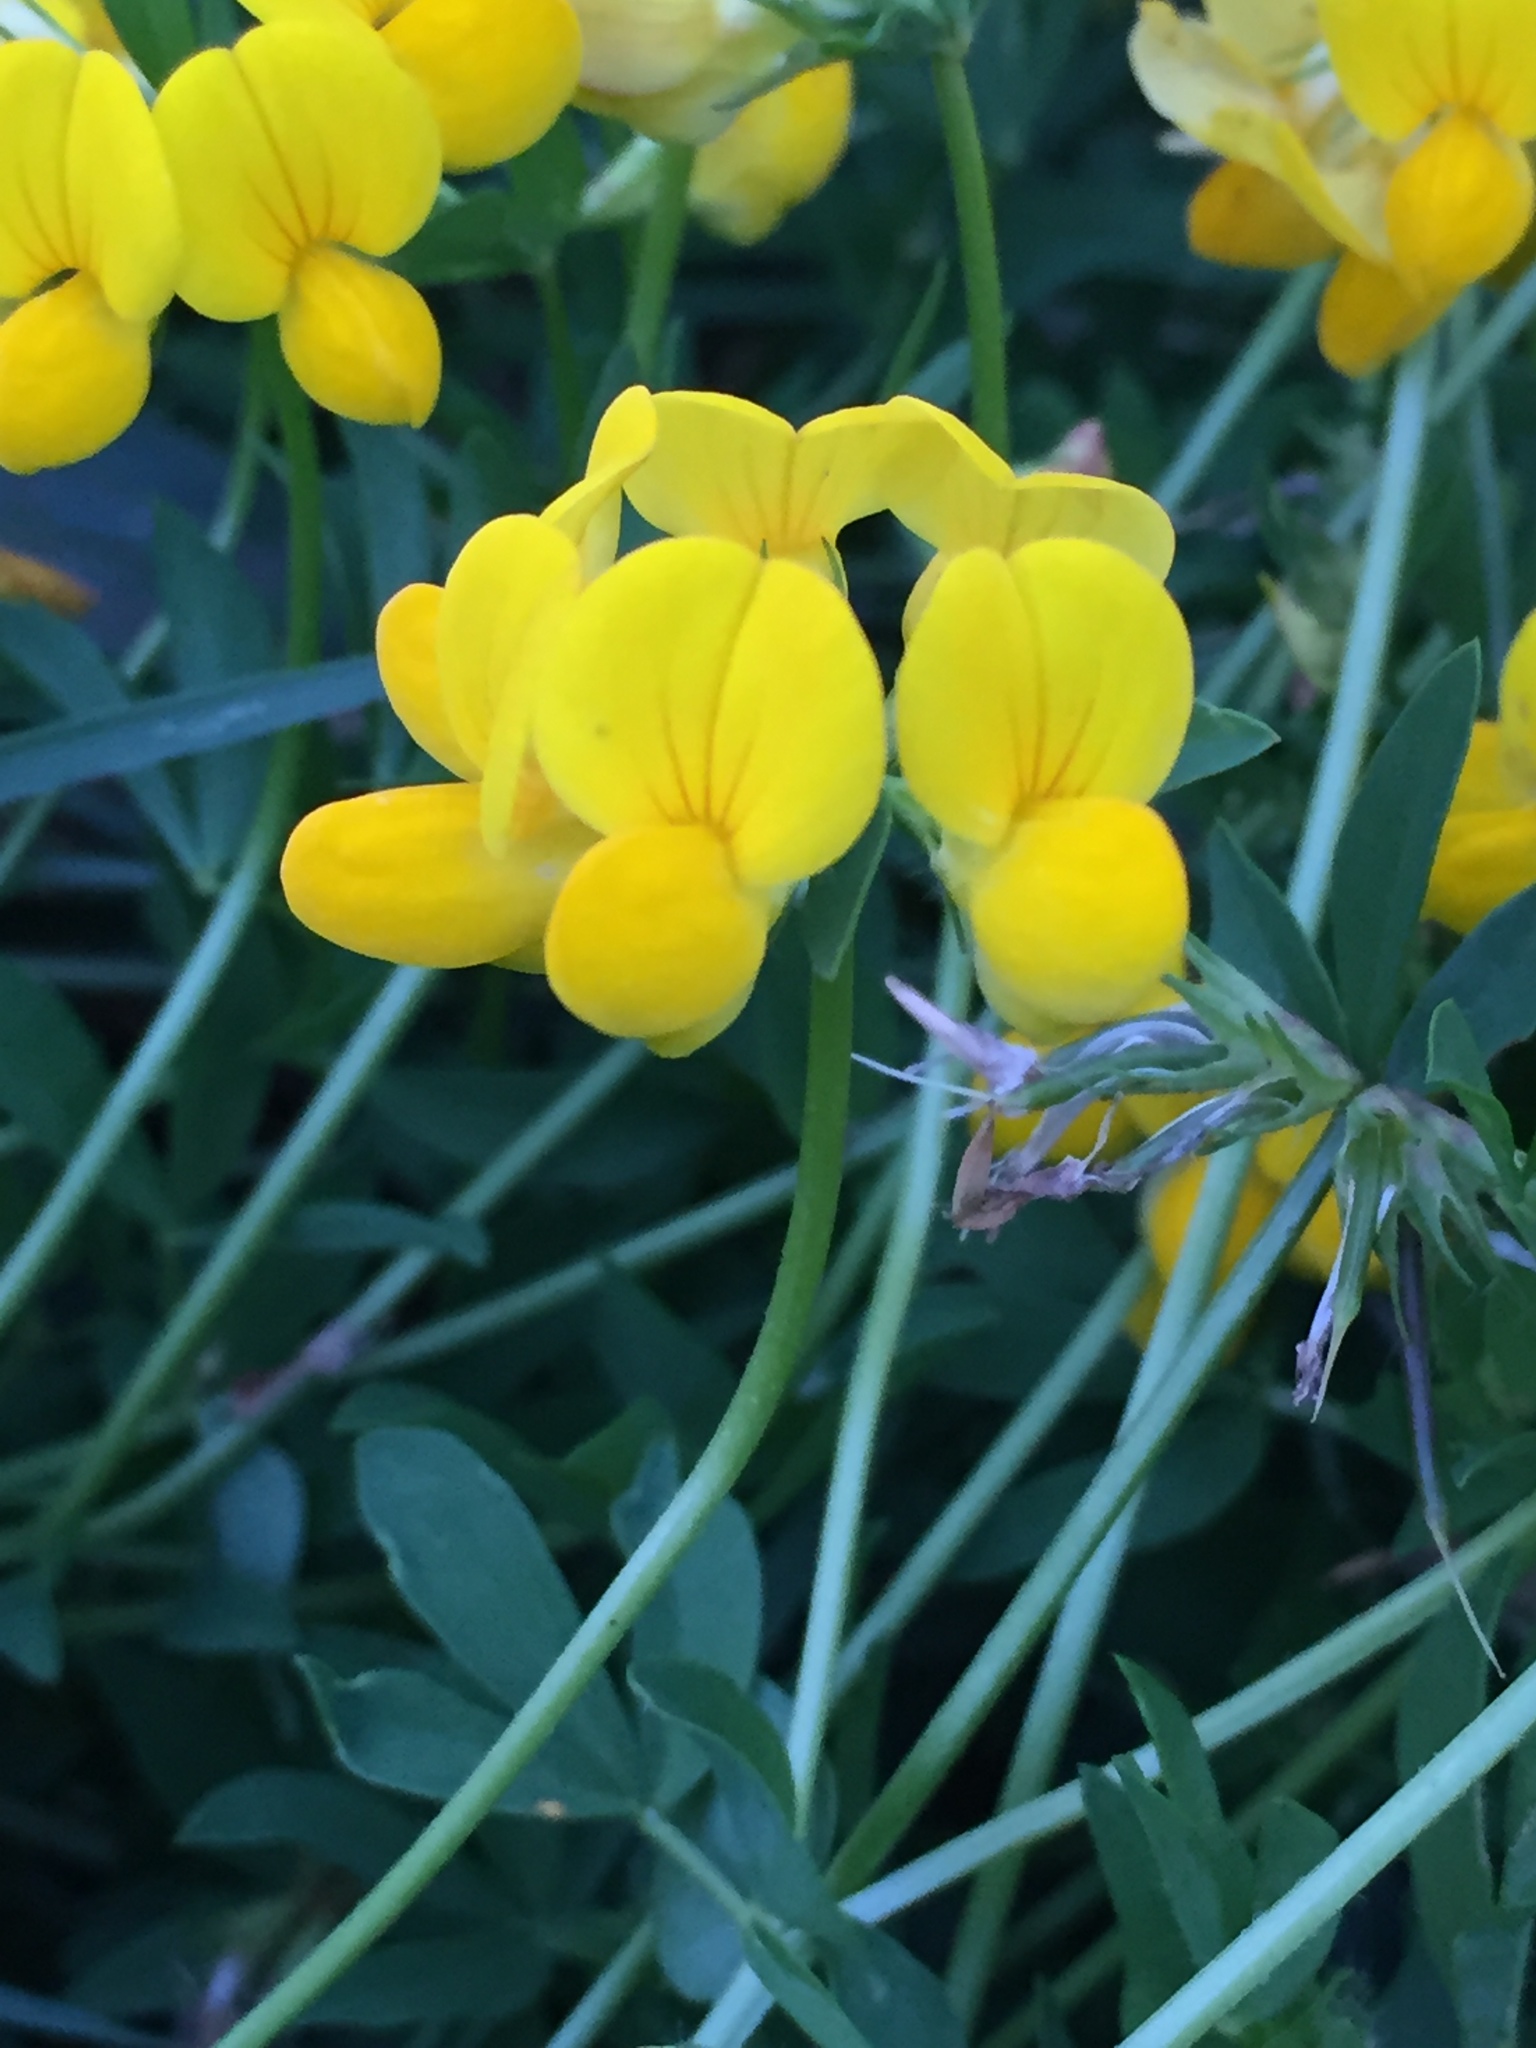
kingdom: Plantae
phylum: Tracheophyta
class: Magnoliopsida
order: Fabales
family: Fabaceae
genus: Lotus
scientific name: Lotus corniculatus
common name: Common bird's-foot-trefoil
